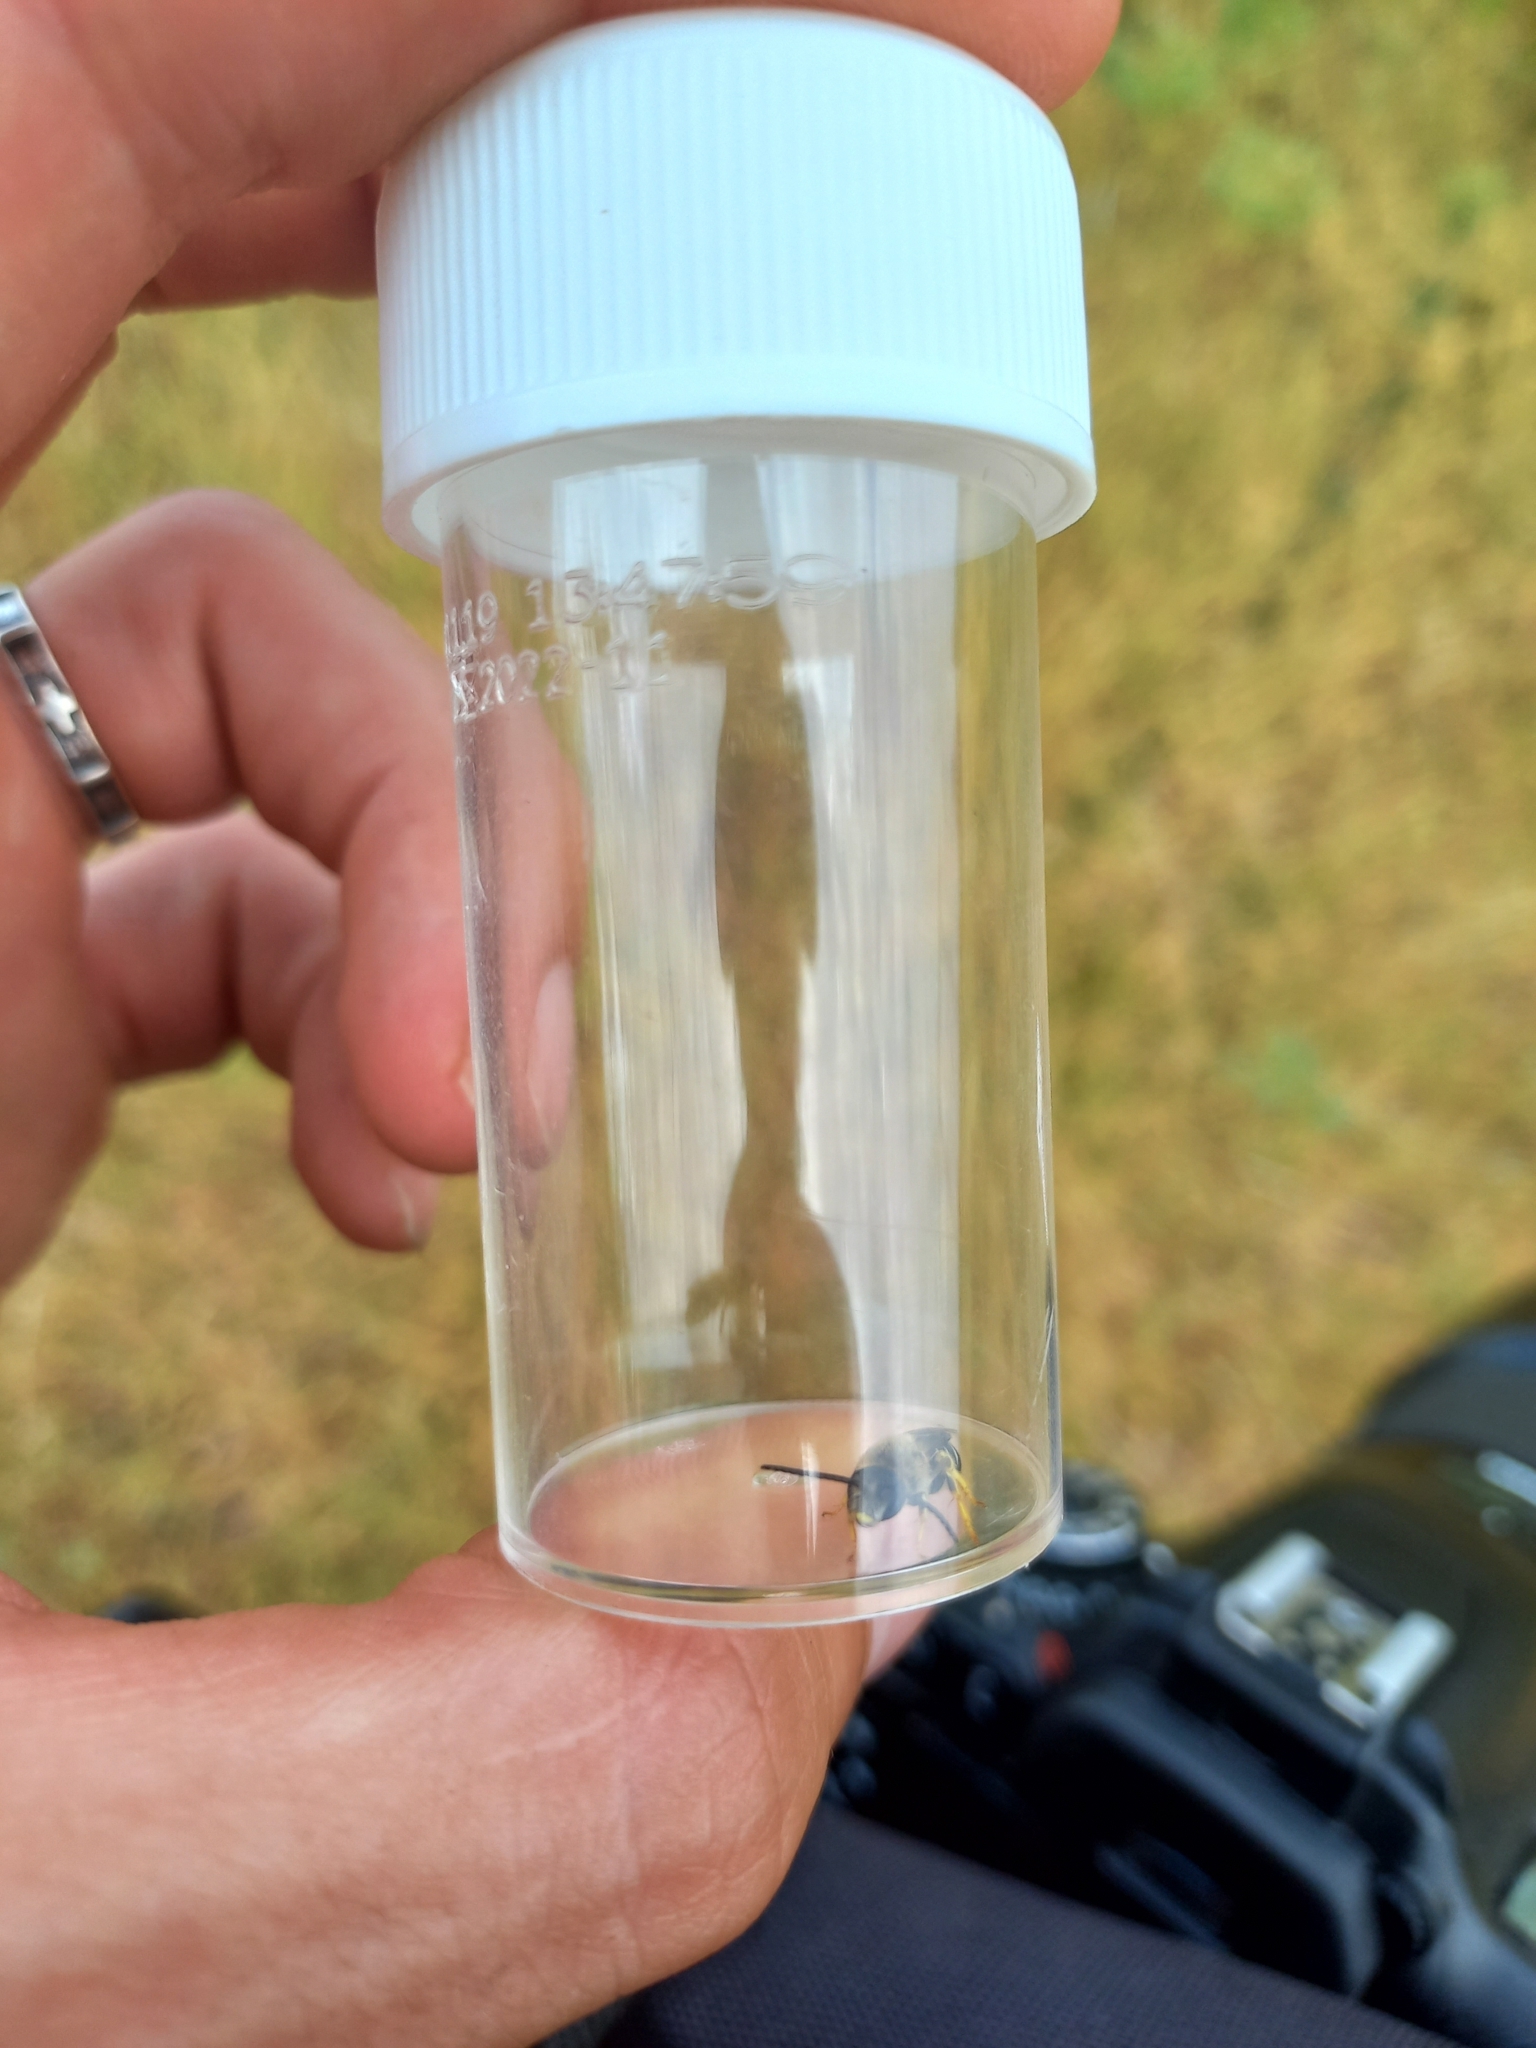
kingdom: Animalia
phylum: Arthropoda
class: Insecta
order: Hymenoptera
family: Halictidae
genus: Halictus
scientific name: Halictus rubicundus
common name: Orange-legged furrow bee
